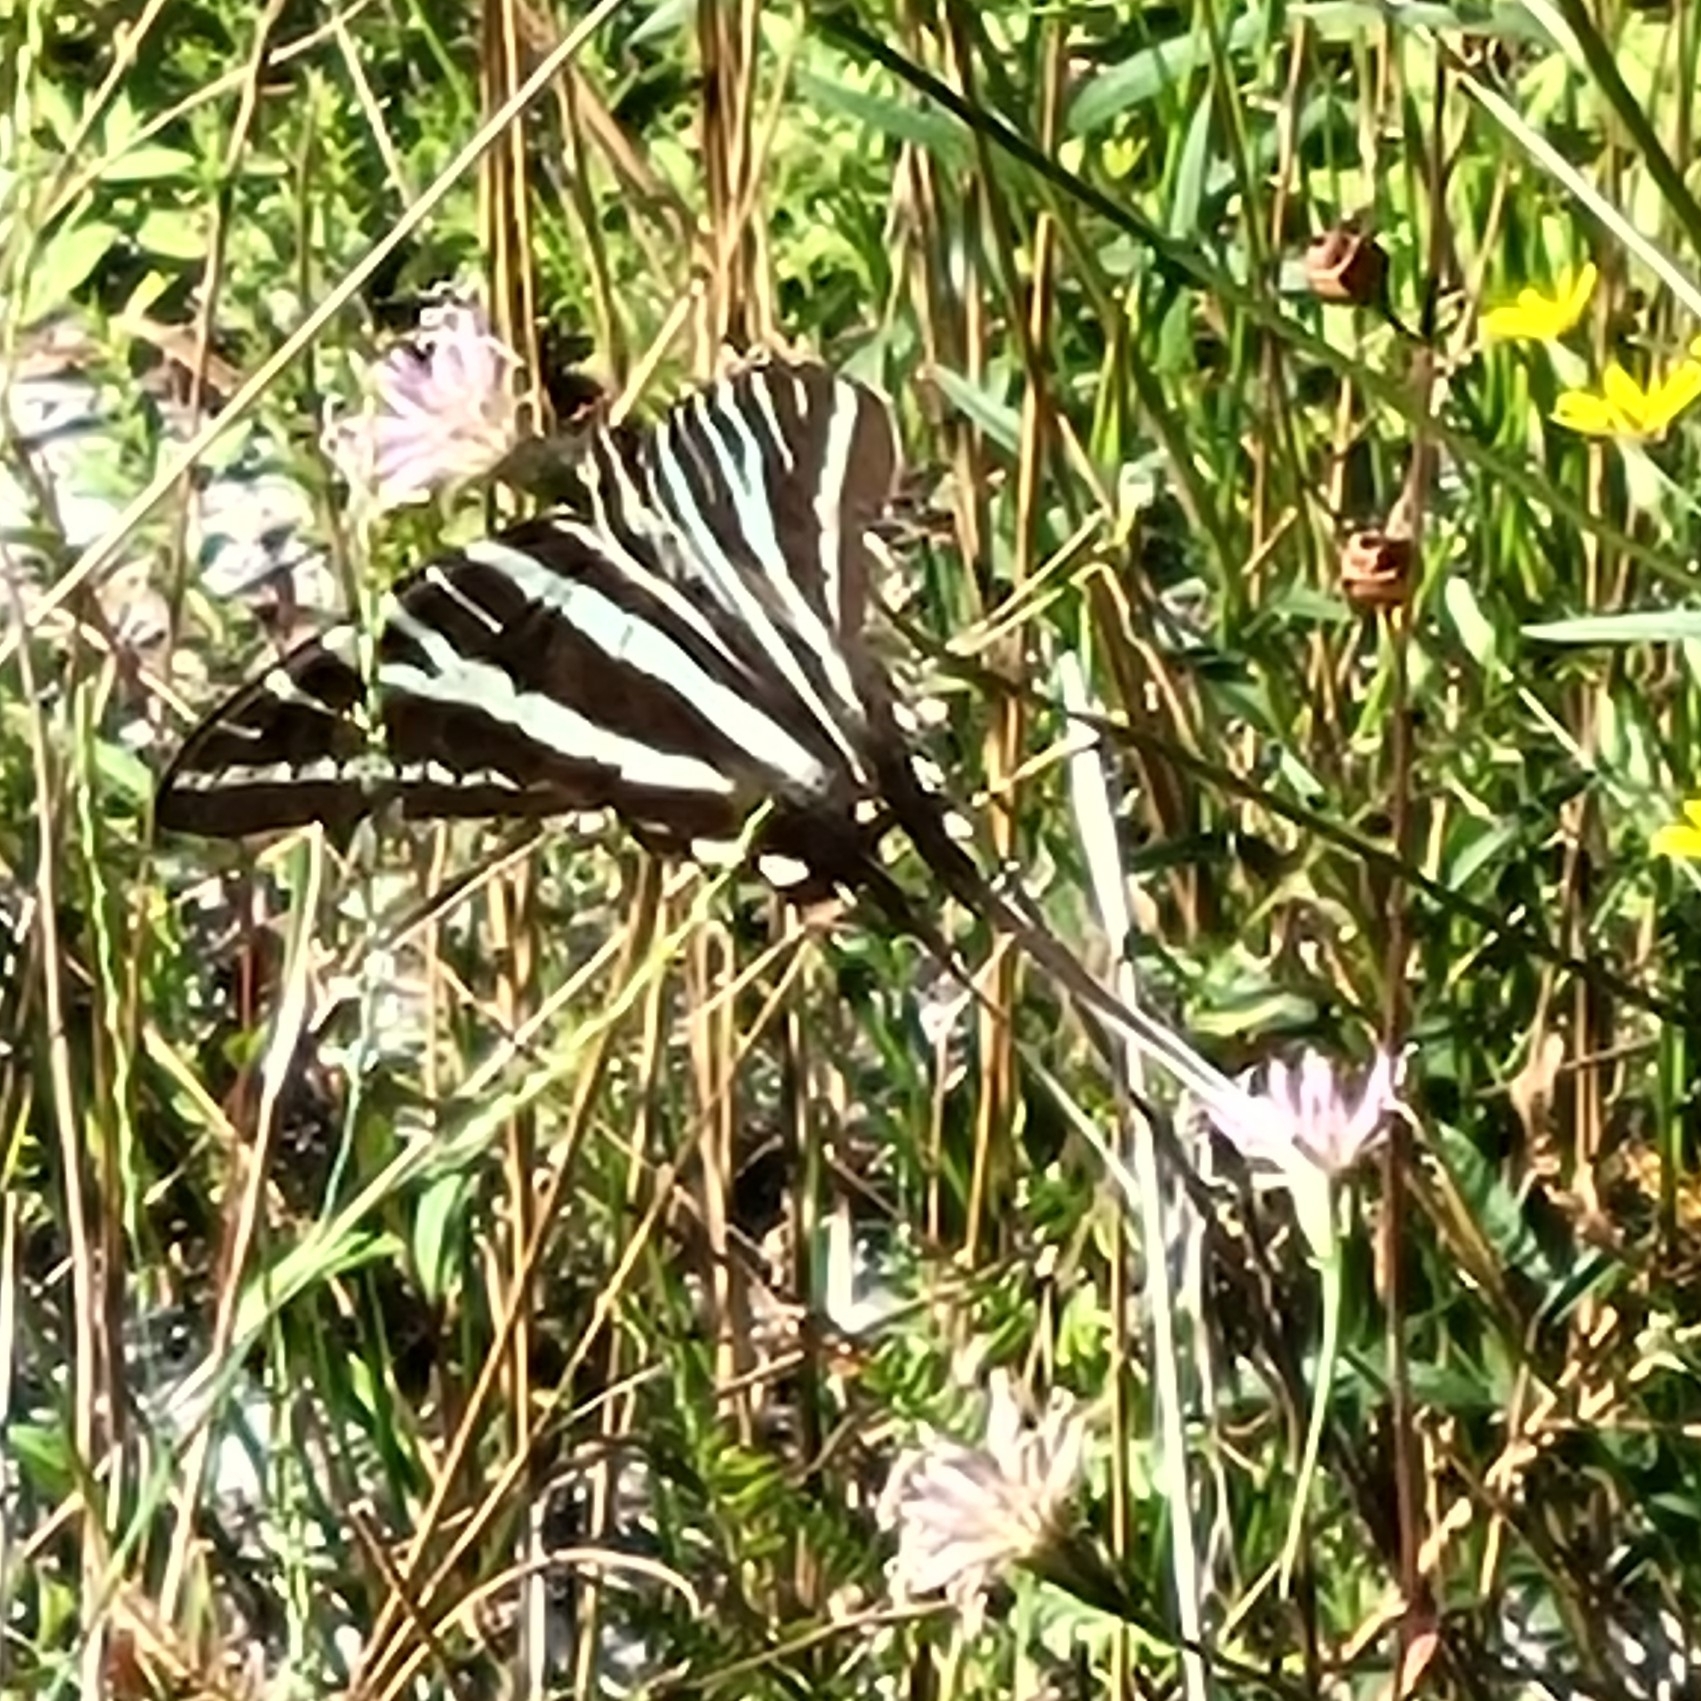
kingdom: Animalia
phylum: Arthropoda
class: Insecta
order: Lepidoptera
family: Papilionidae
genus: Protographium
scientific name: Protographium marcellus
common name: Zebra swallowtail
